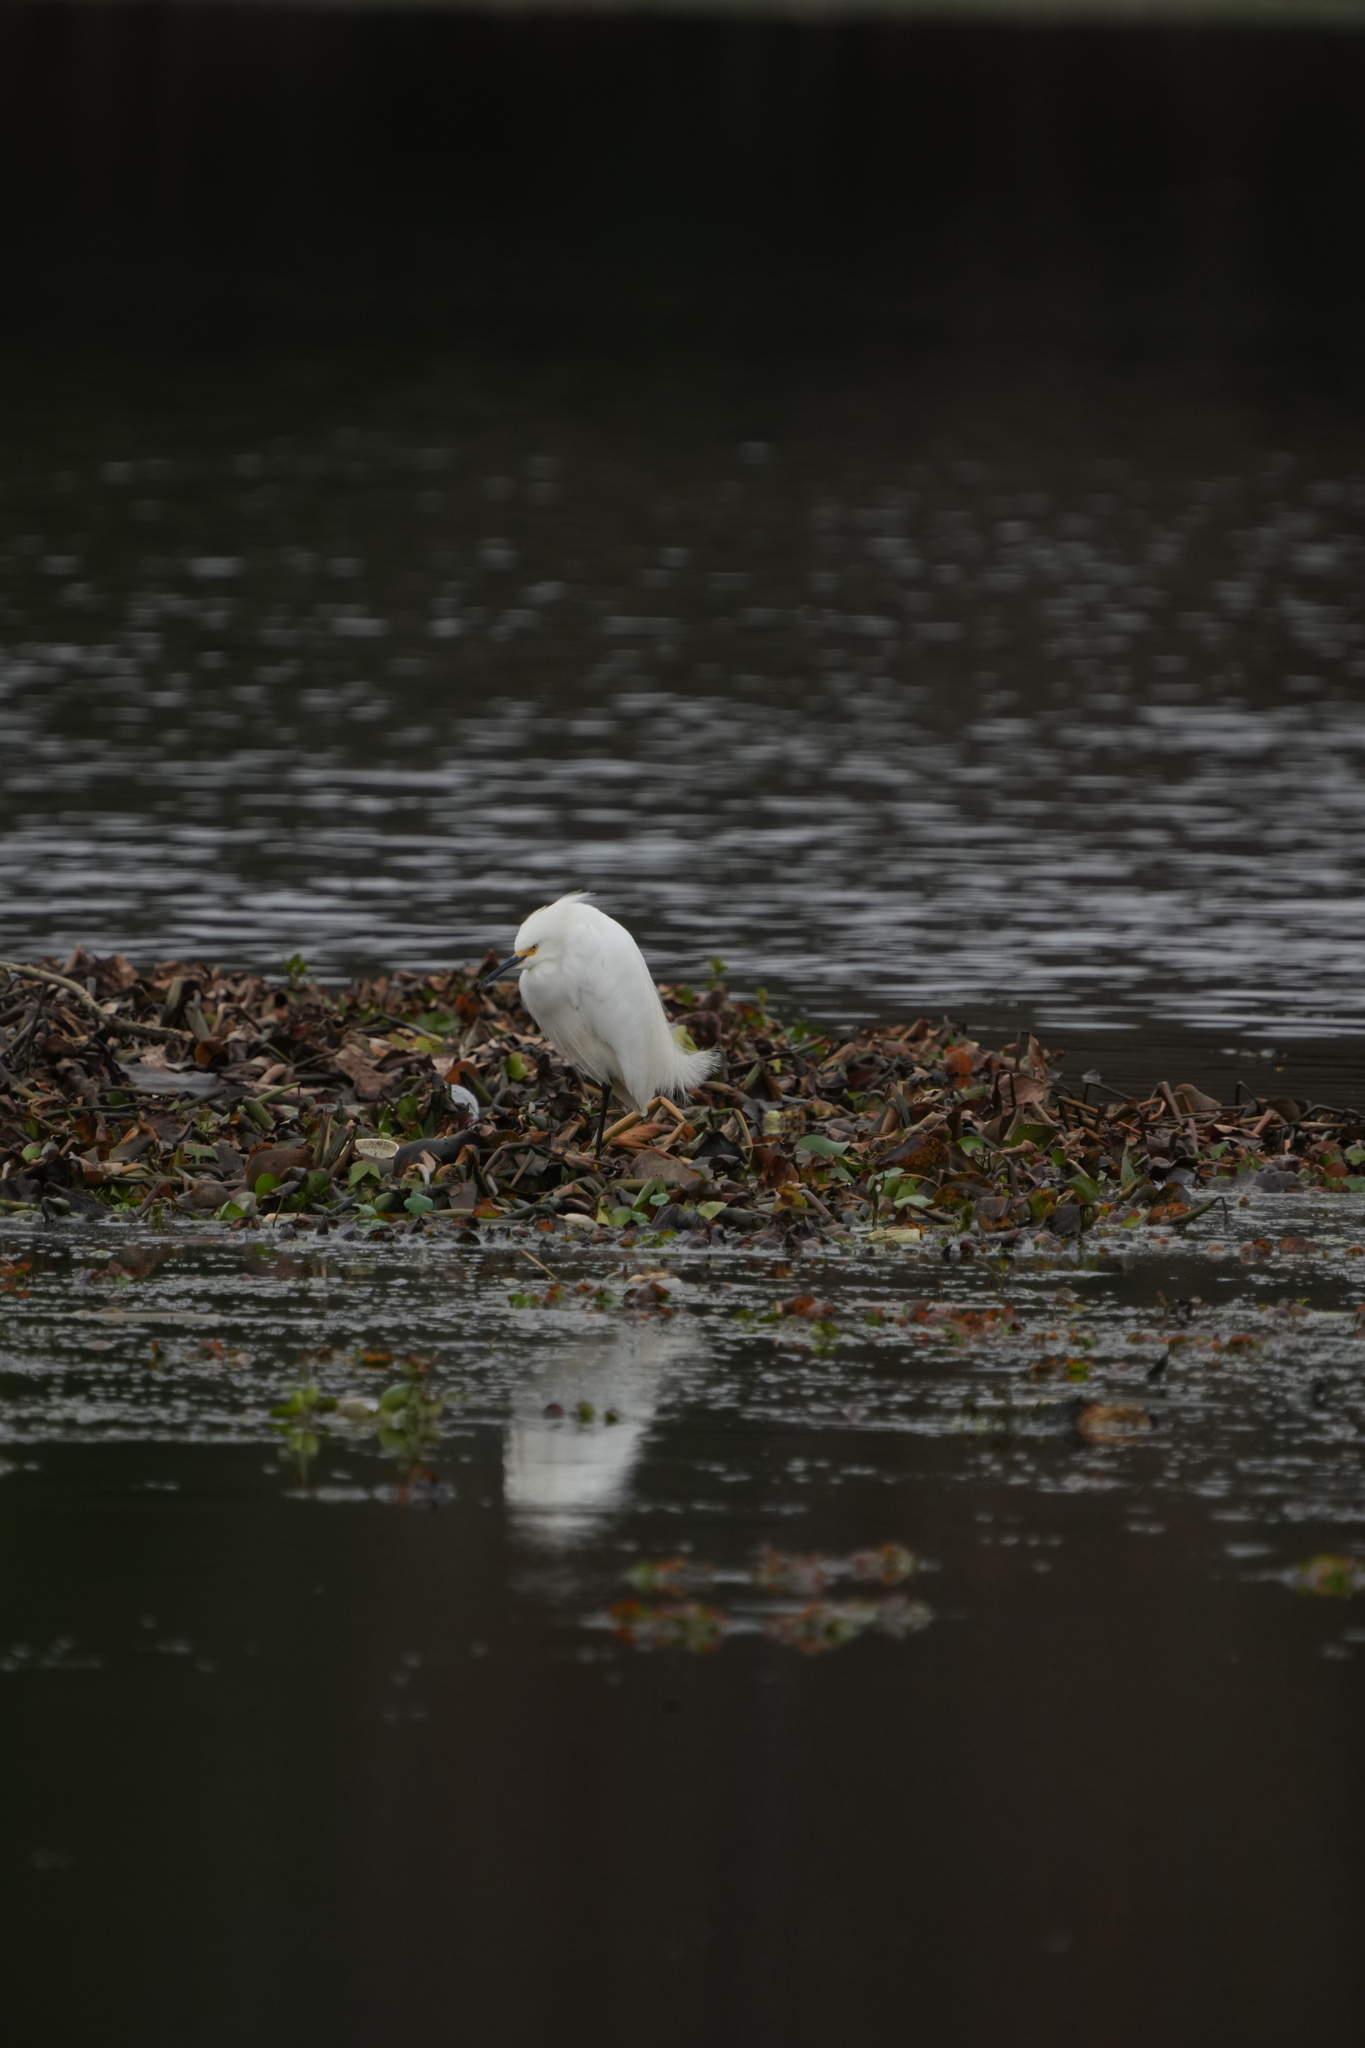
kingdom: Animalia
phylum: Chordata
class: Aves
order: Pelecaniformes
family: Ardeidae
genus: Egretta
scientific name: Egretta thula
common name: Snowy egret
